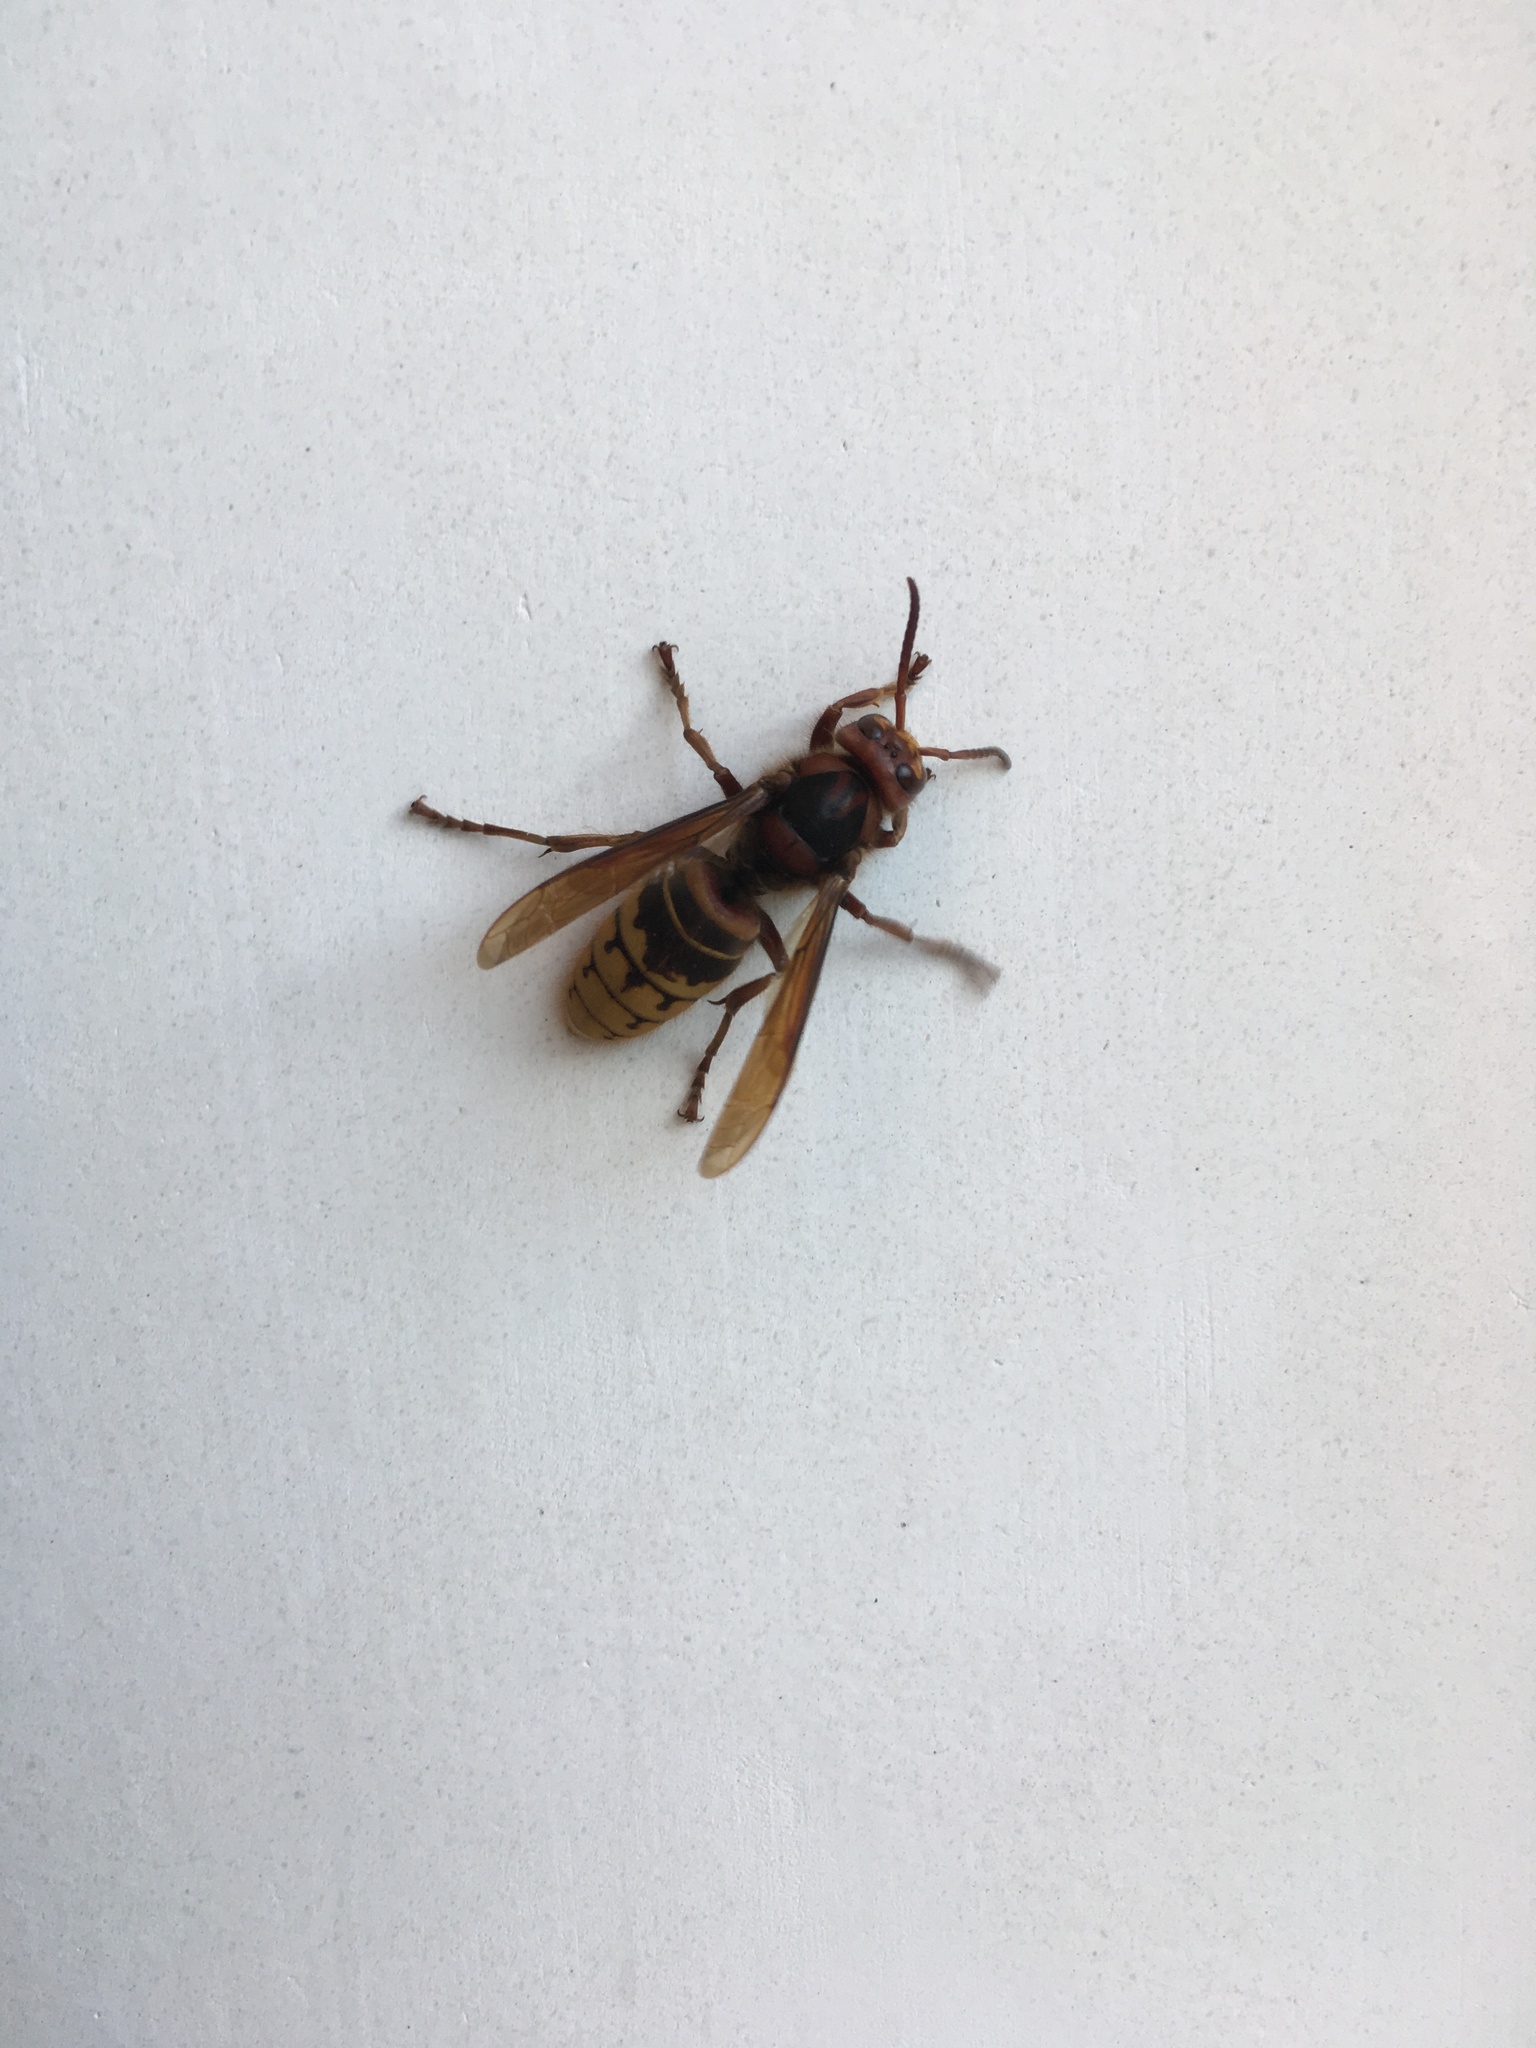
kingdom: Animalia
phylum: Arthropoda
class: Insecta
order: Hymenoptera
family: Vespidae
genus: Vespa
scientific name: Vespa crabro
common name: Hornet
